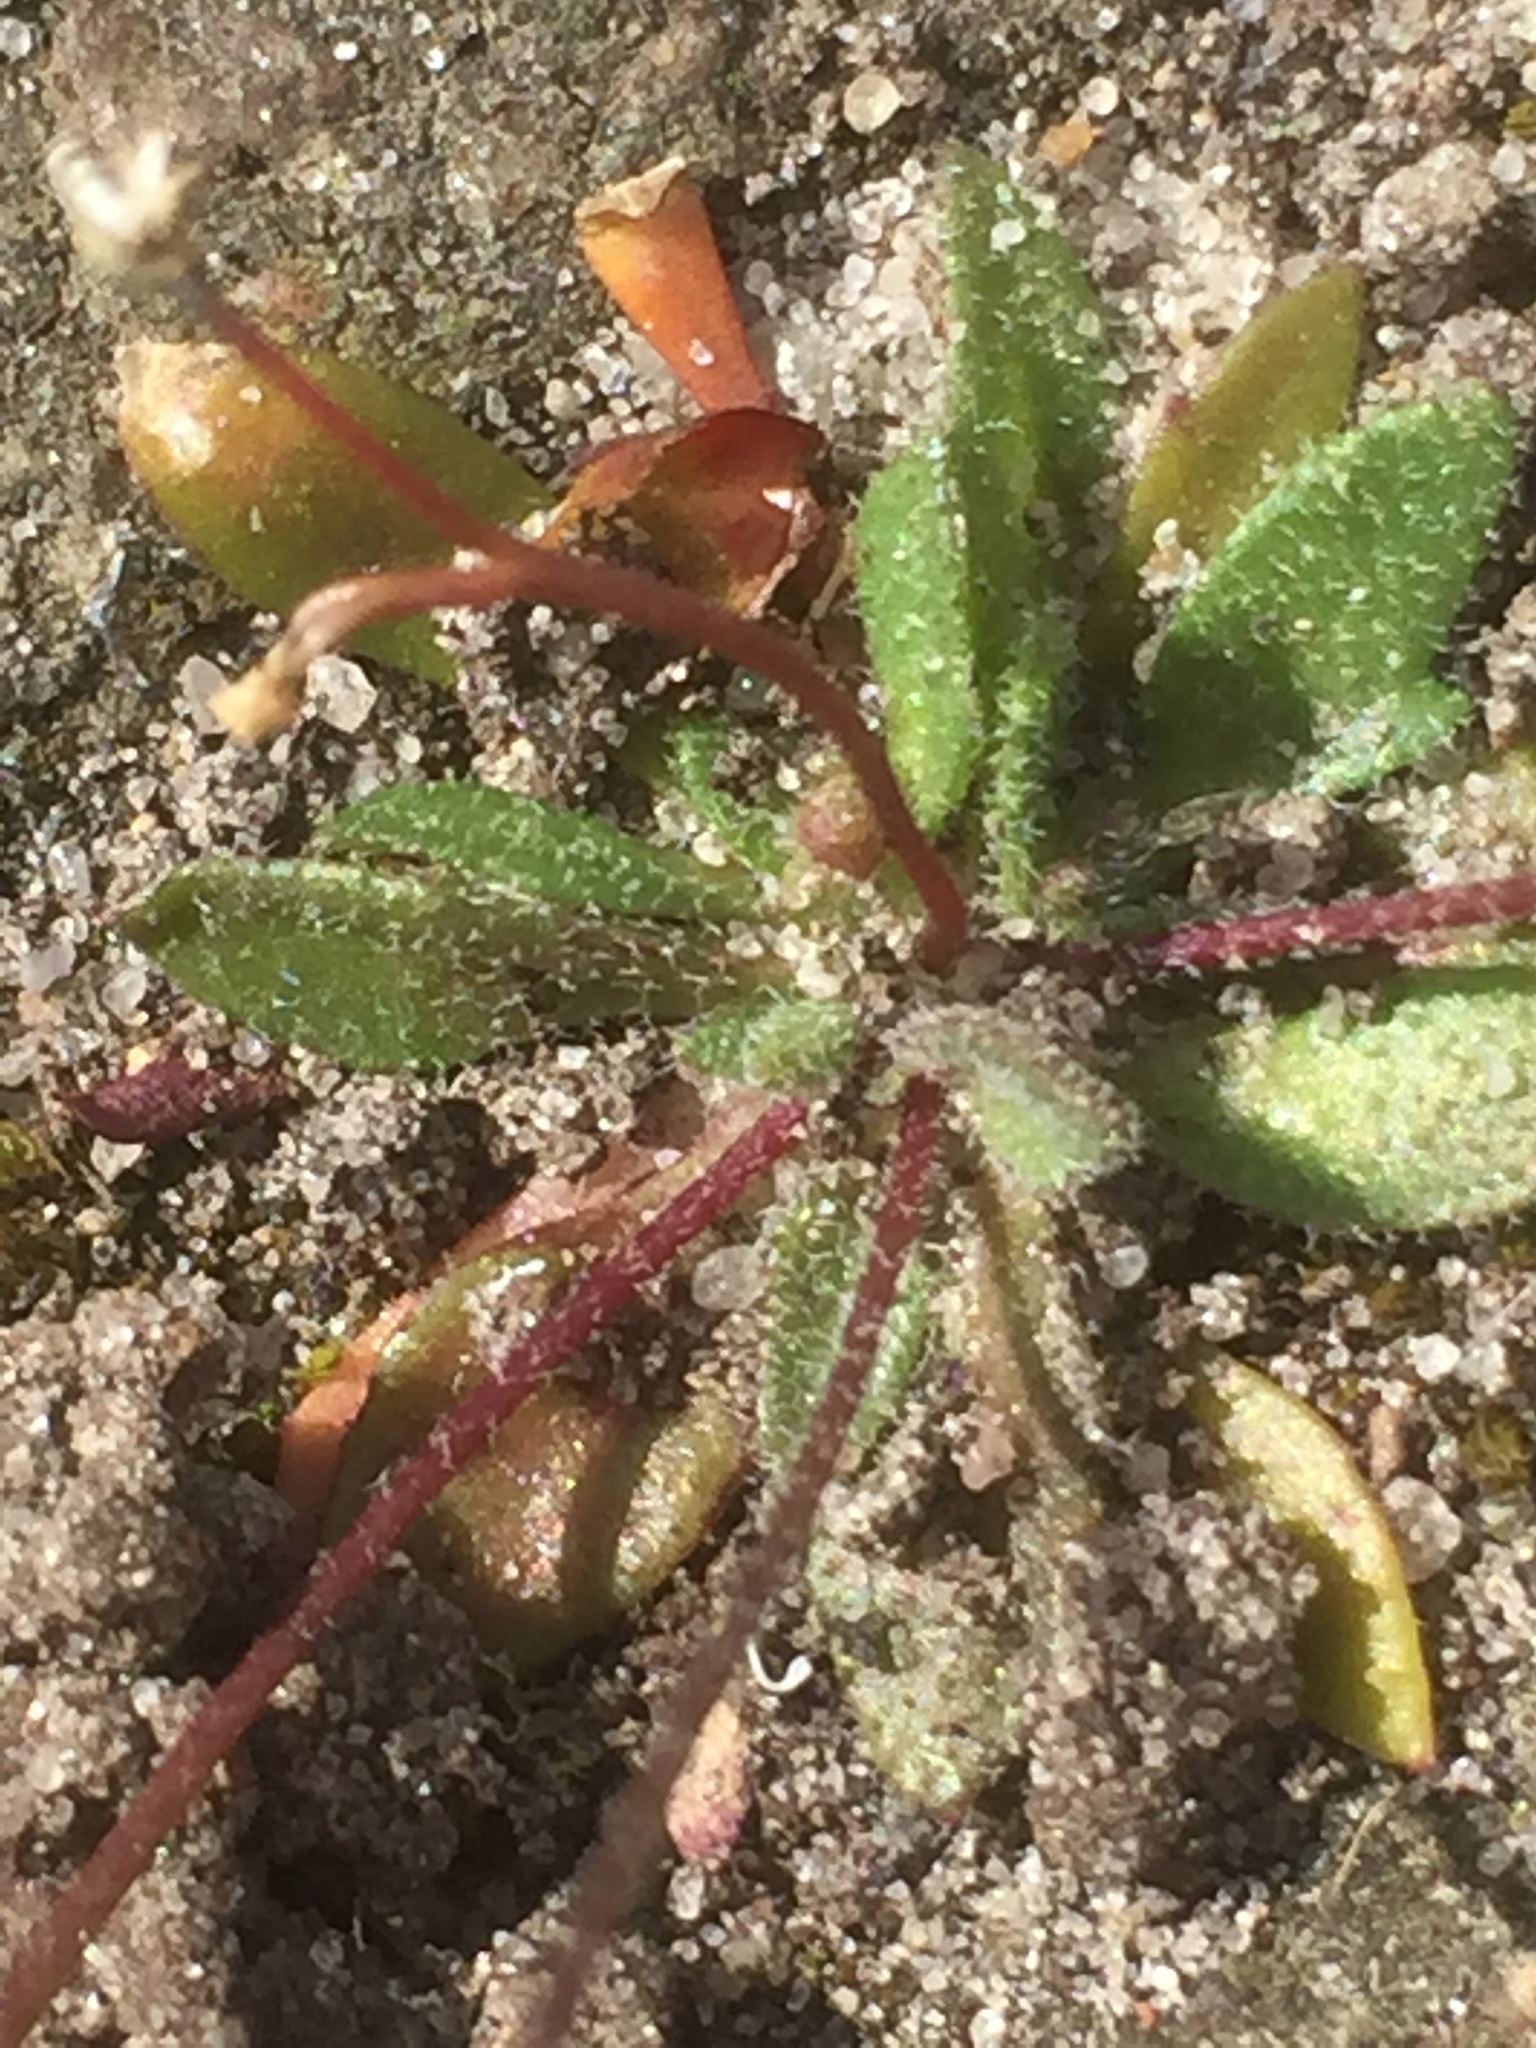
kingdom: Plantae
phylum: Tracheophyta
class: Magnoliopsida
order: Brassicales
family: Brassicaceae
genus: Draba
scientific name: Draba verna
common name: Spring draba
